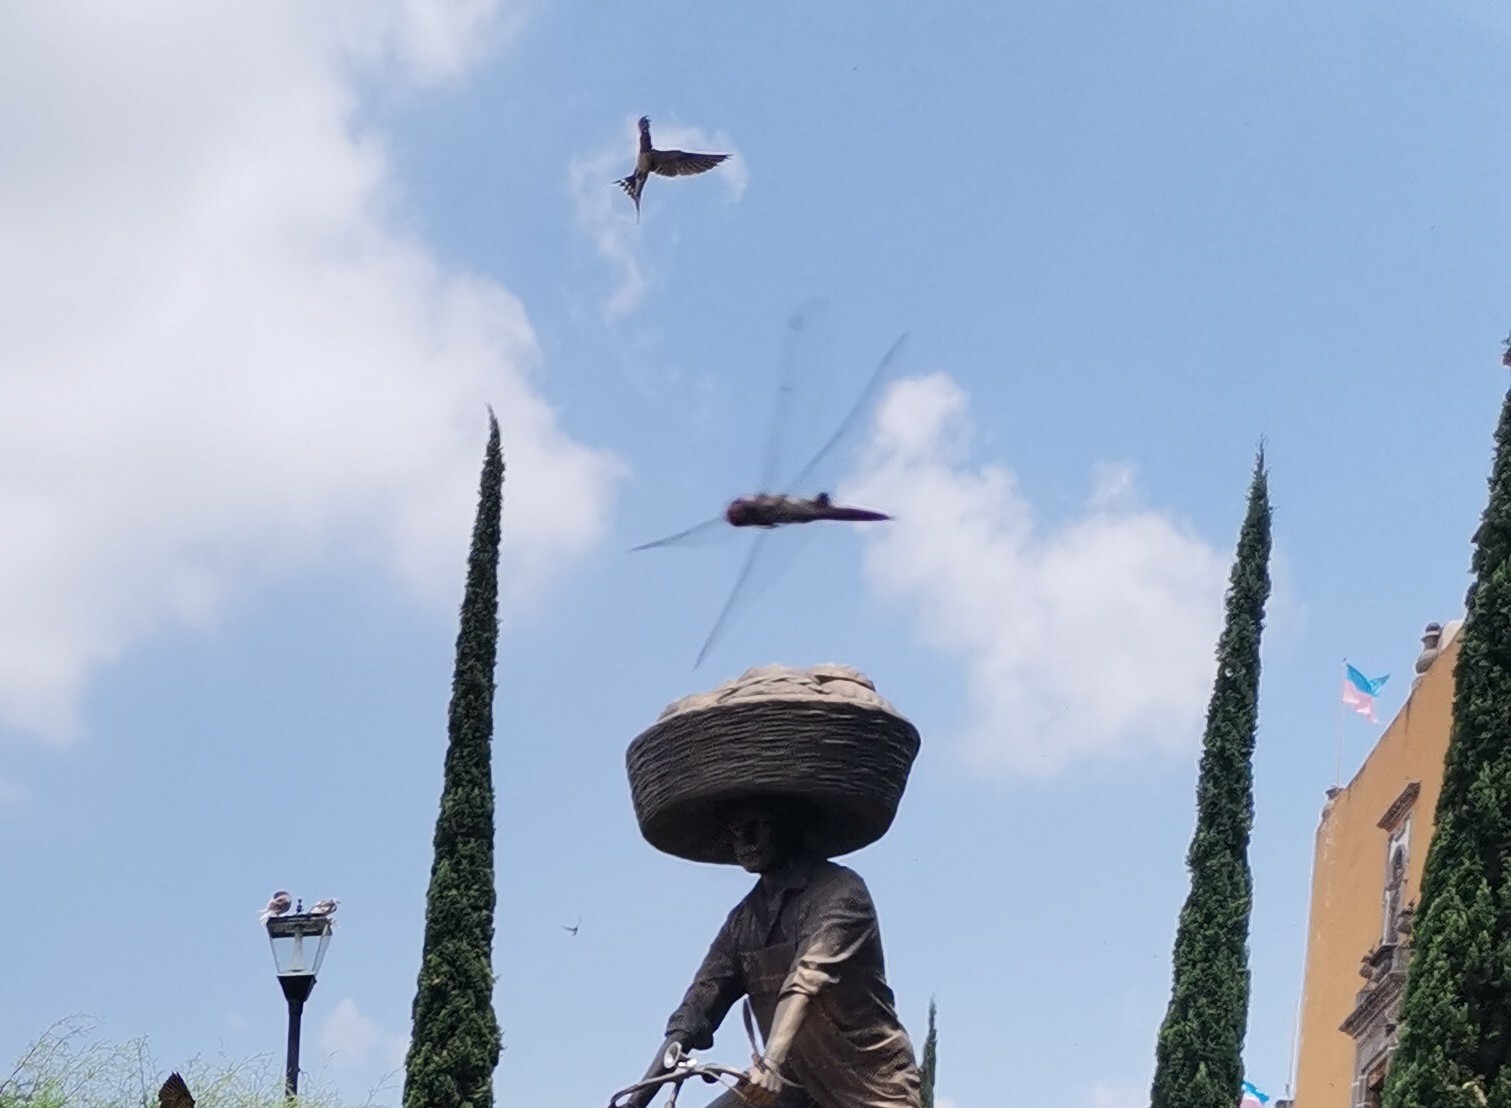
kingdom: Animalia
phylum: Chordata
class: Aves
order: Passeriformes
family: Hirundinidae
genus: Hirundo
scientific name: Hirundo rustica
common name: Barn swallow
